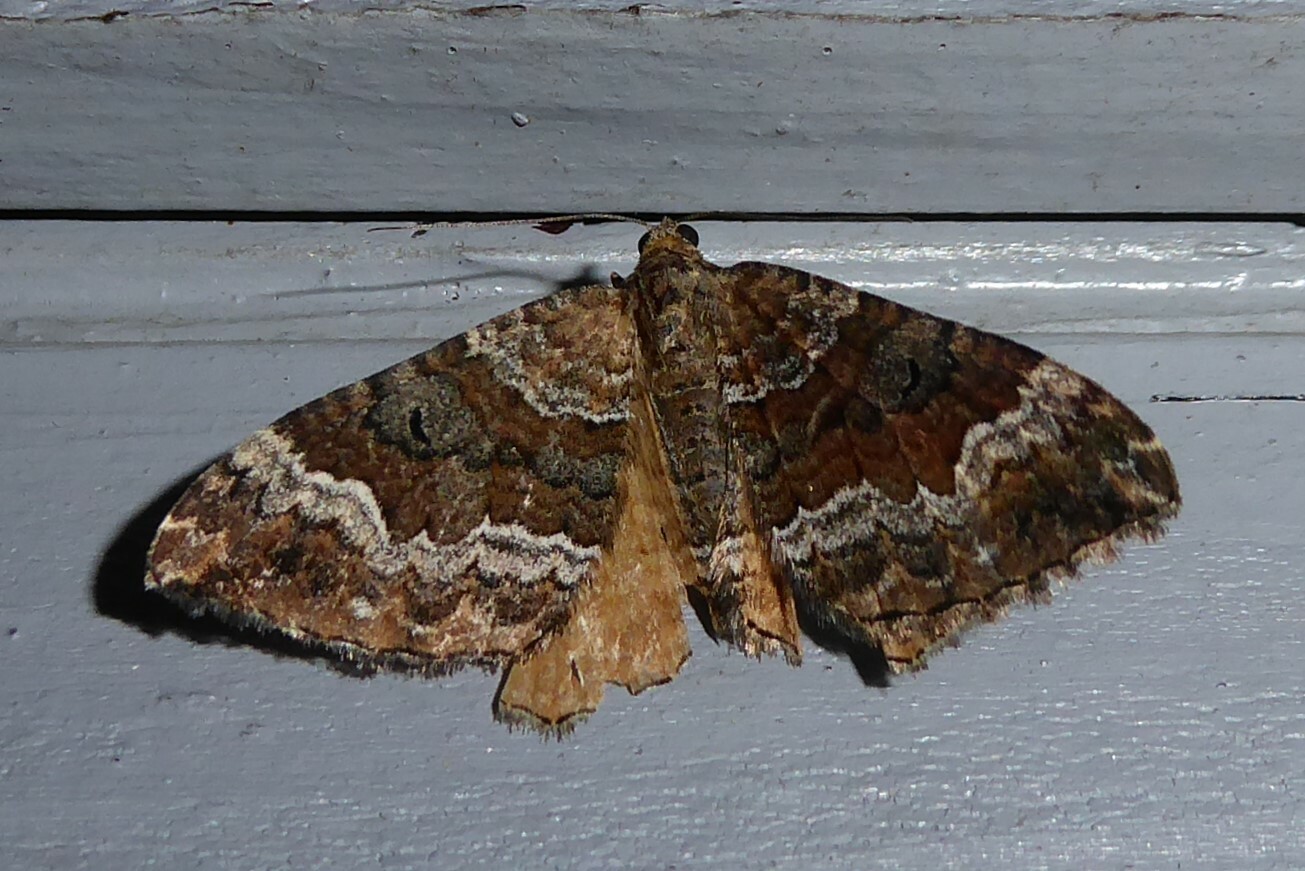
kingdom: Animalia
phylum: Arthropoda
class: Insecta
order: Lepidoptera
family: Geometridae
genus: Hydriomena
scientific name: Hydriomena deltoidata
